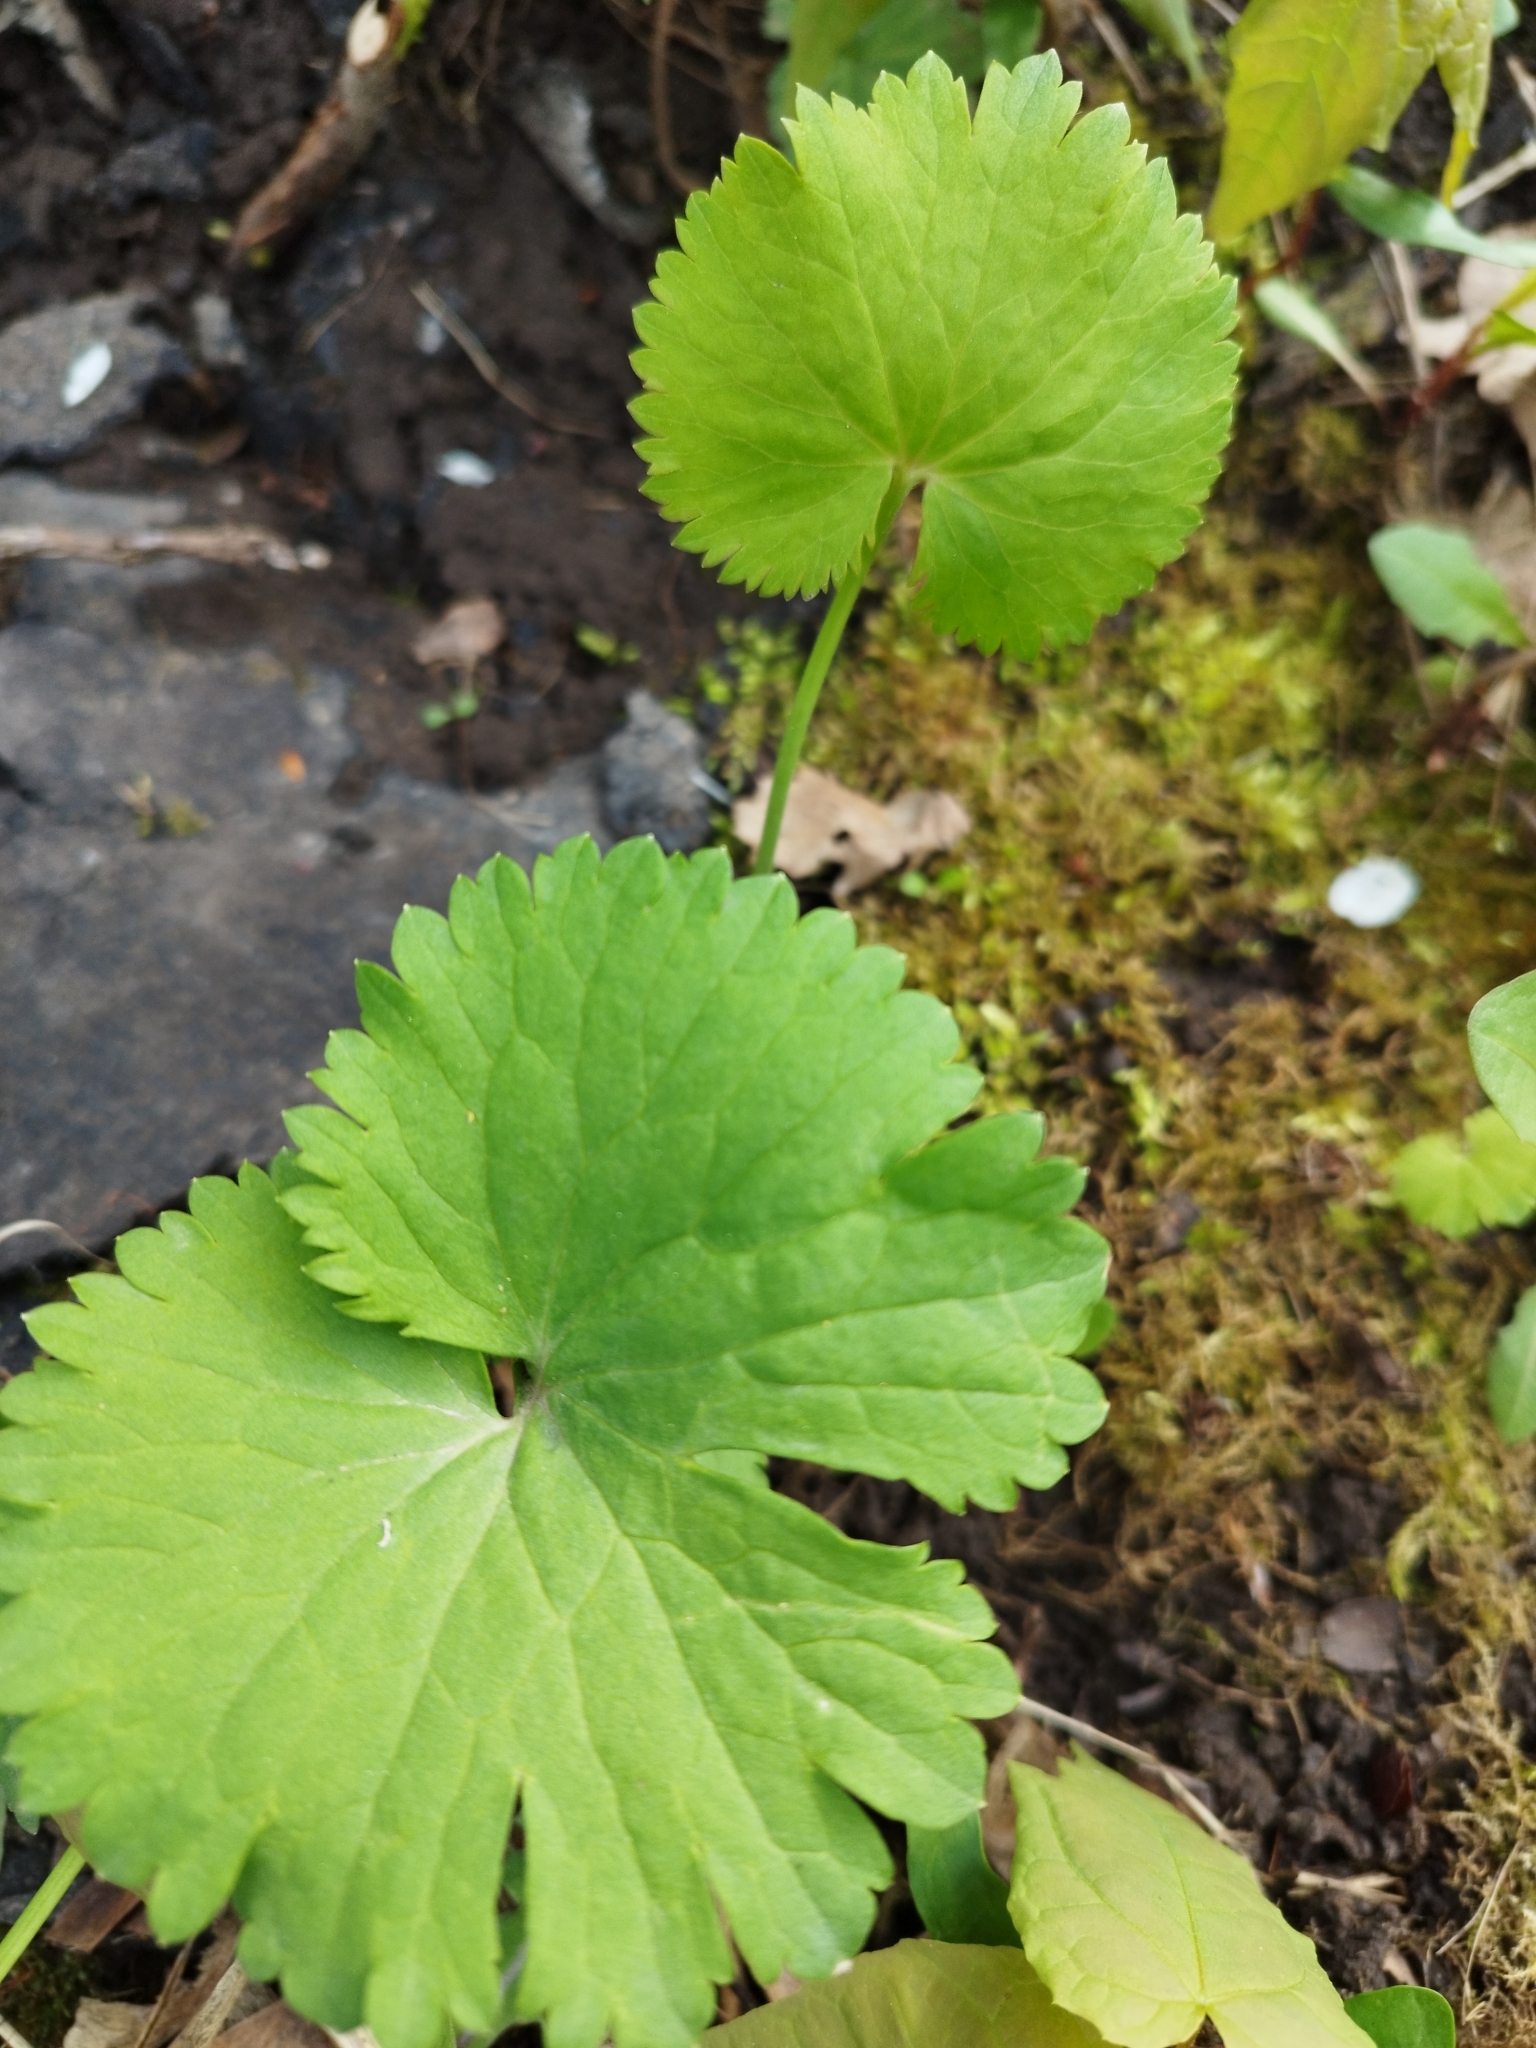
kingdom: Plantae
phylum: Tracheophyta
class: Magnoliopsida
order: Ranunculales
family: Ranunculaceae
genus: Ranunculus
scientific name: Ranunculus cassubicus
